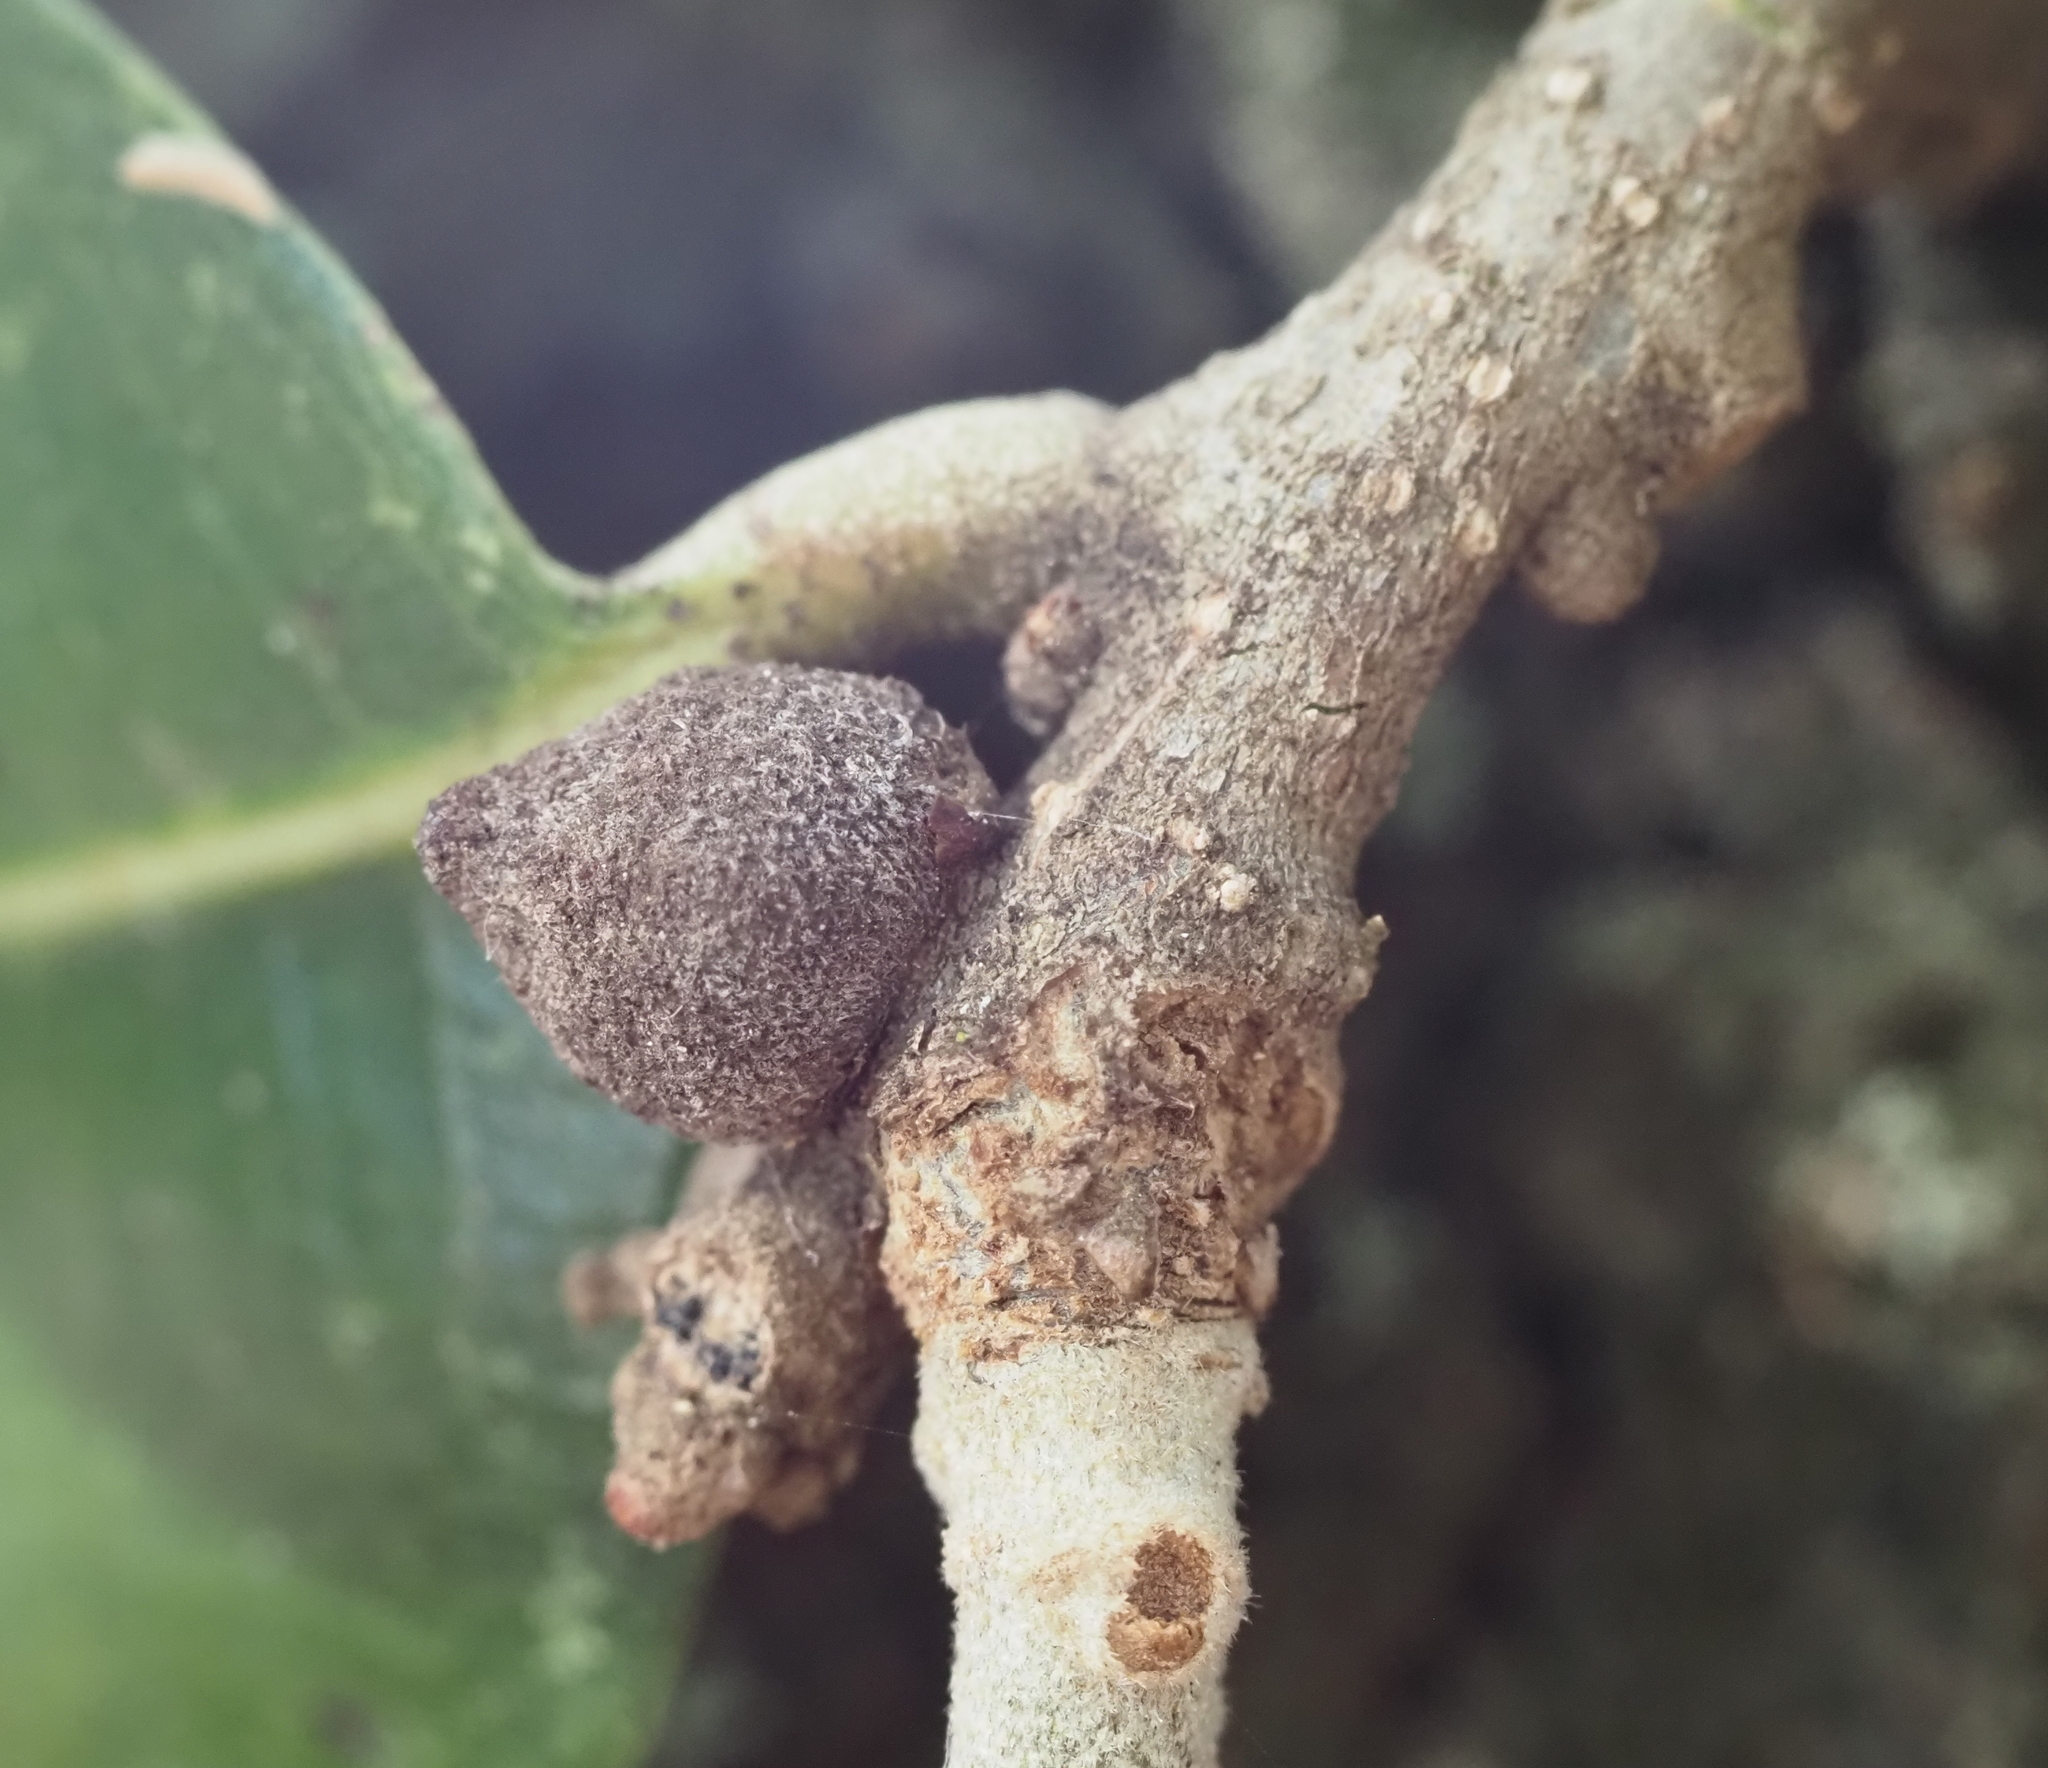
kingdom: Animalia
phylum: Arthropoda
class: Insecta
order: Hymenoptera
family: Cynipidae
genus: Disholcaspis
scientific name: Disholcaspis
